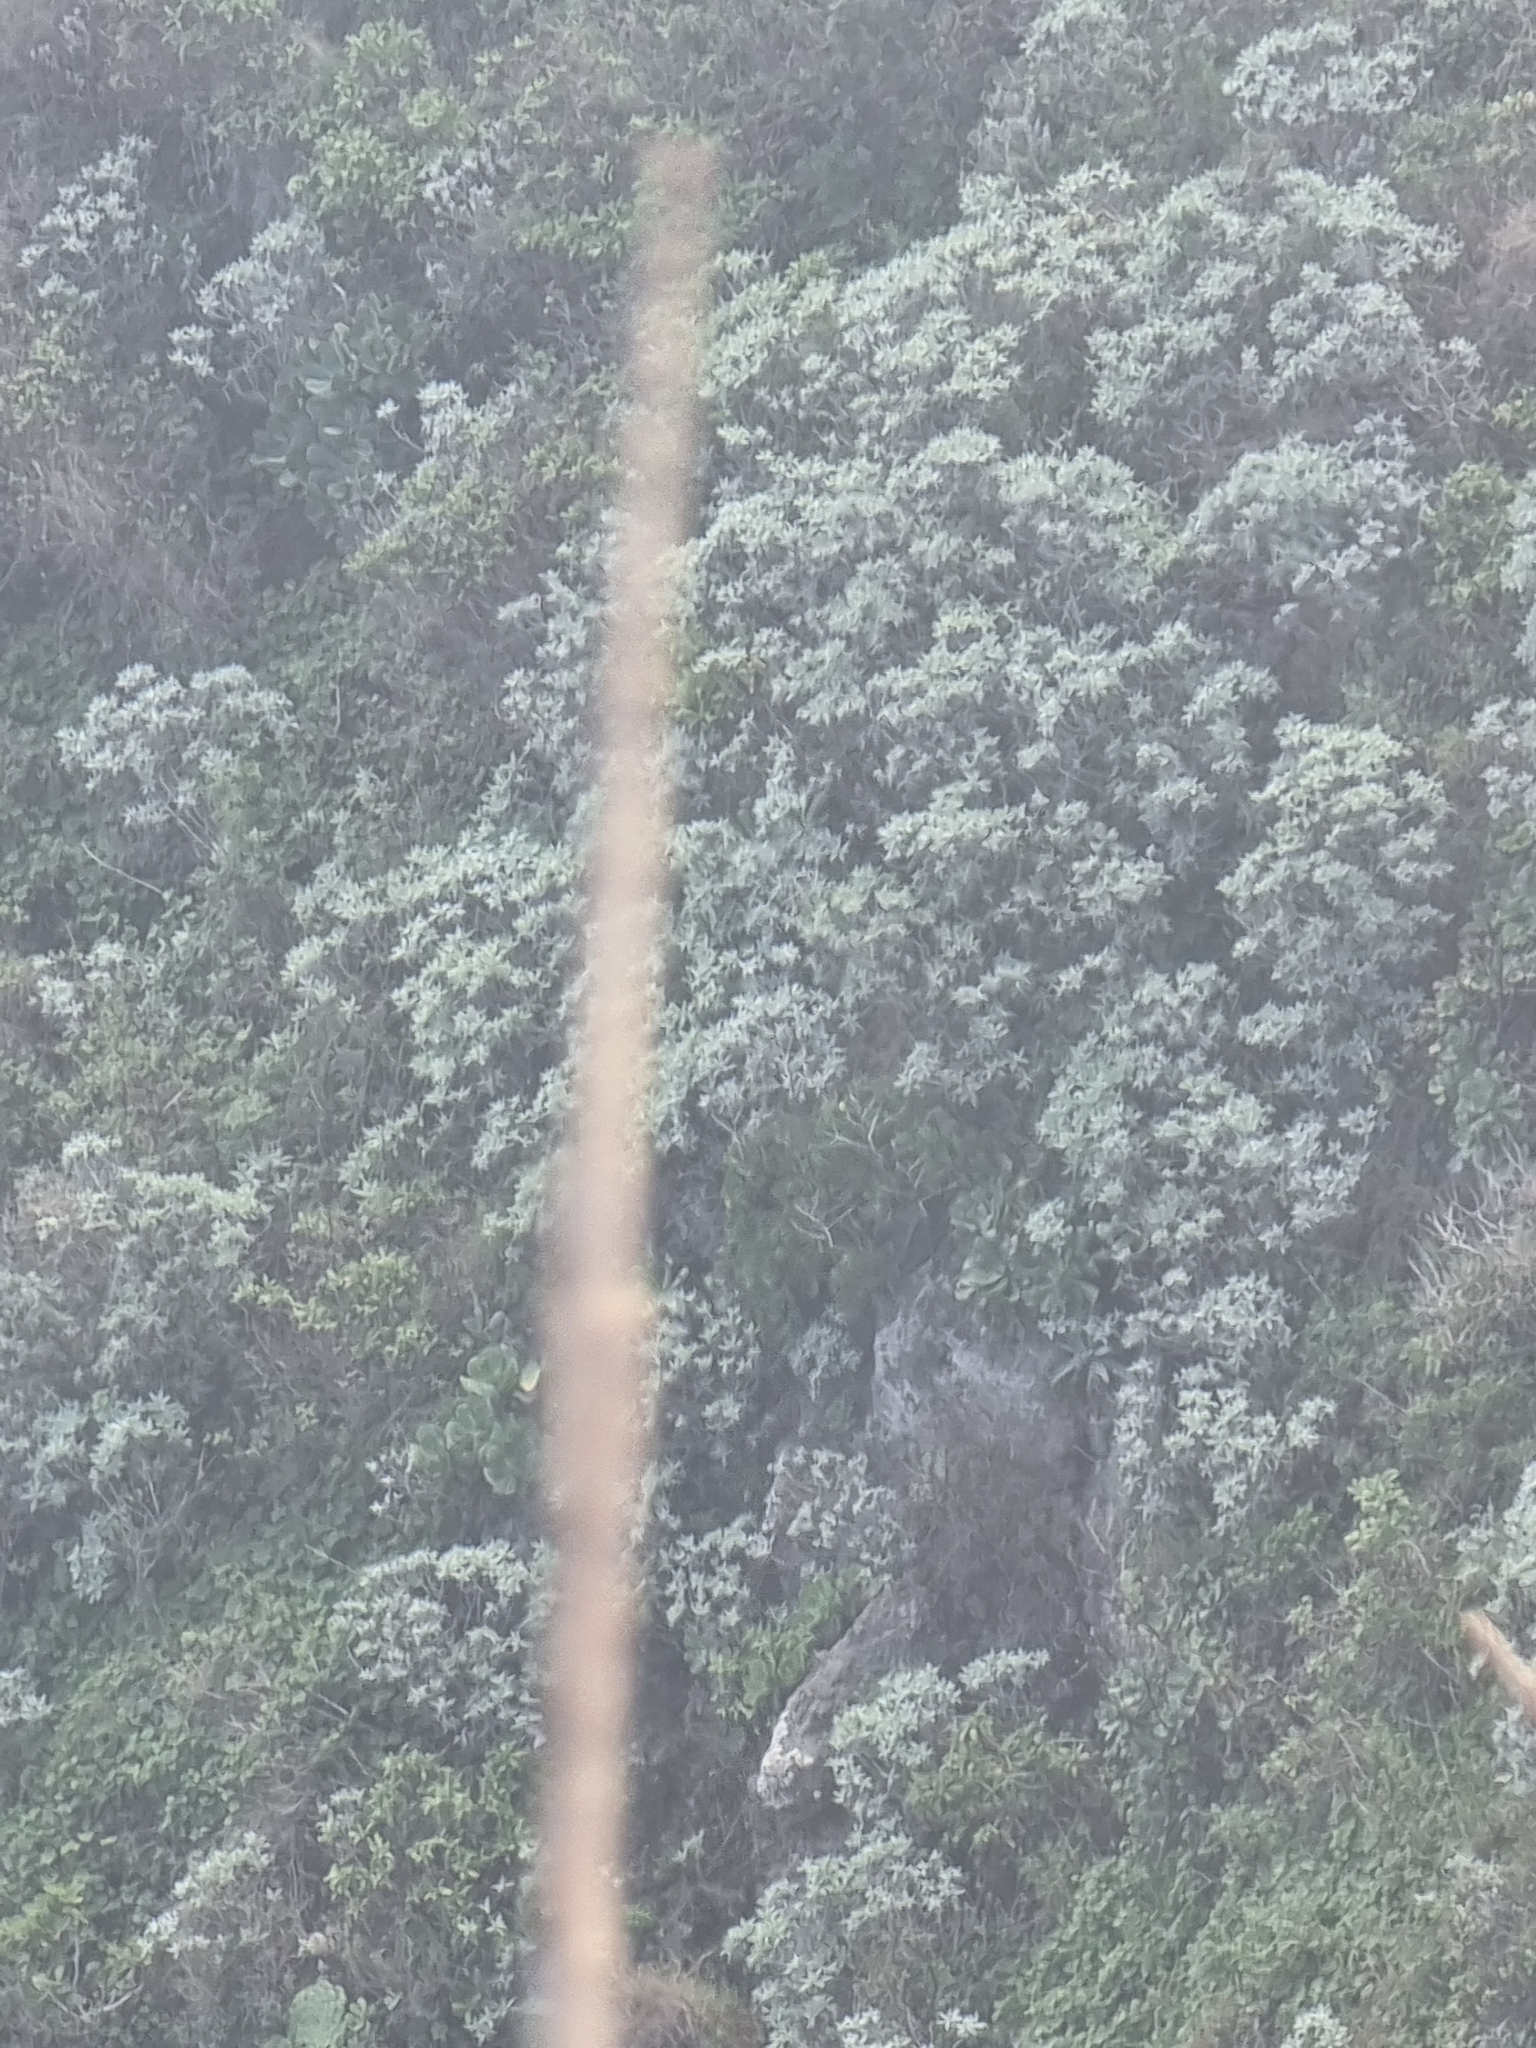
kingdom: Plantae
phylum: Tracheophyta
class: Magnoliopsida
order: Asterales
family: Asteraceae
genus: Helichrysum
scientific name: Helichrysum melaleucum
